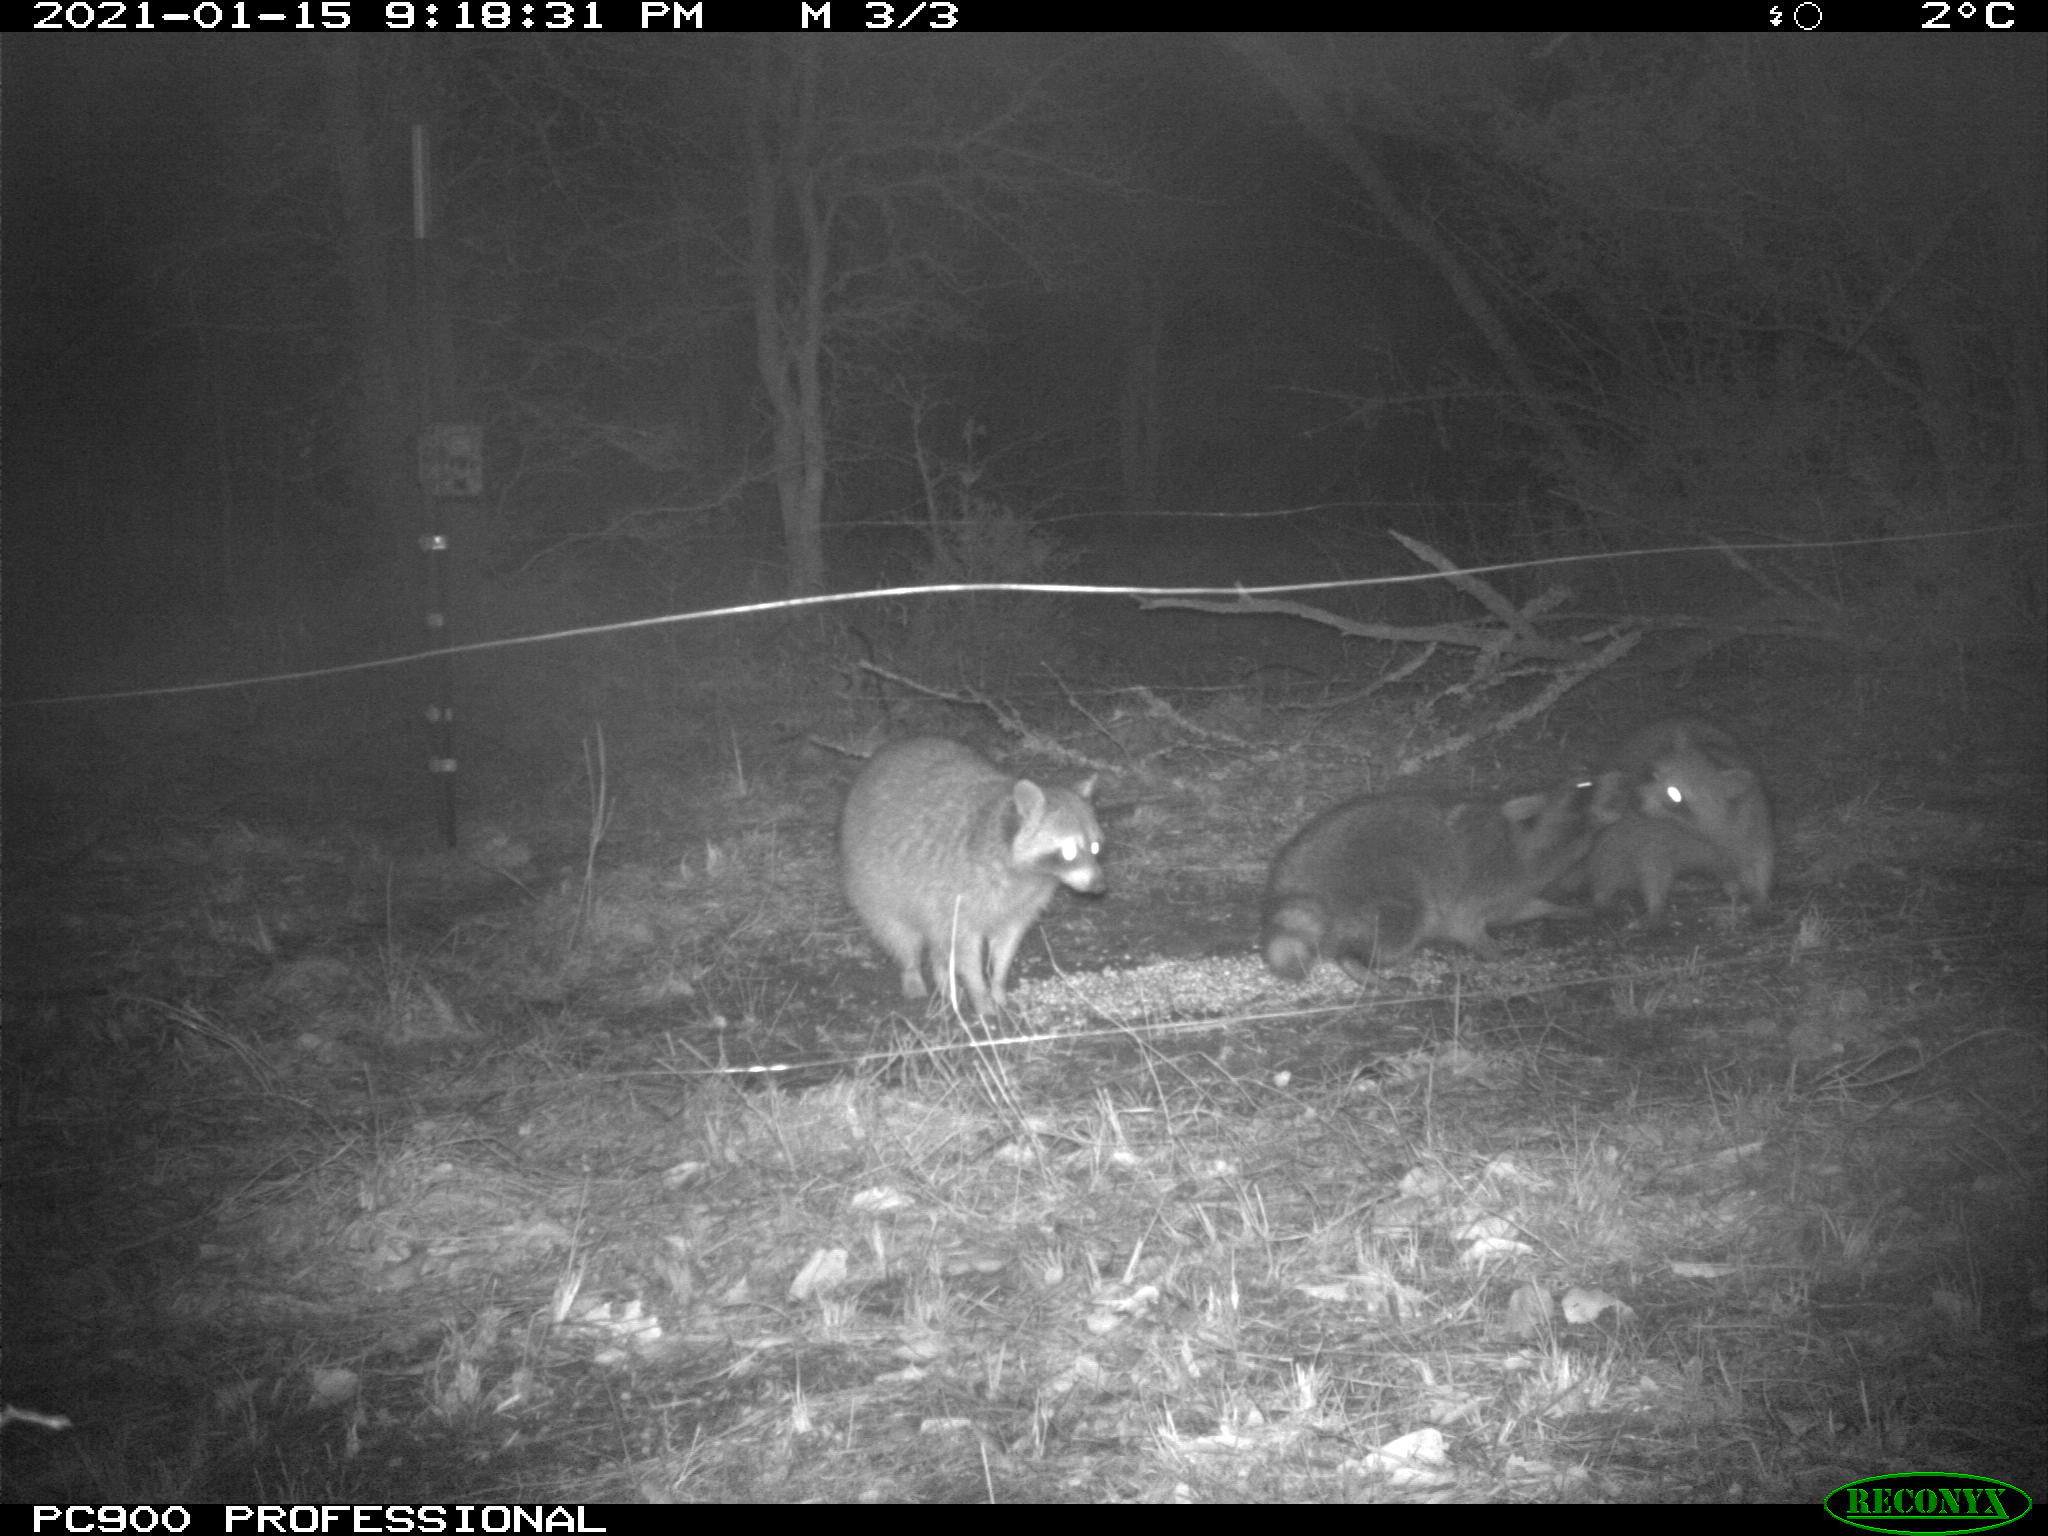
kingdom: Animalia
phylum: Chordata
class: Mammalia
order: Carnivora
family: Procyonidae
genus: Procyon
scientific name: Procyon lotor
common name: Raccoon
